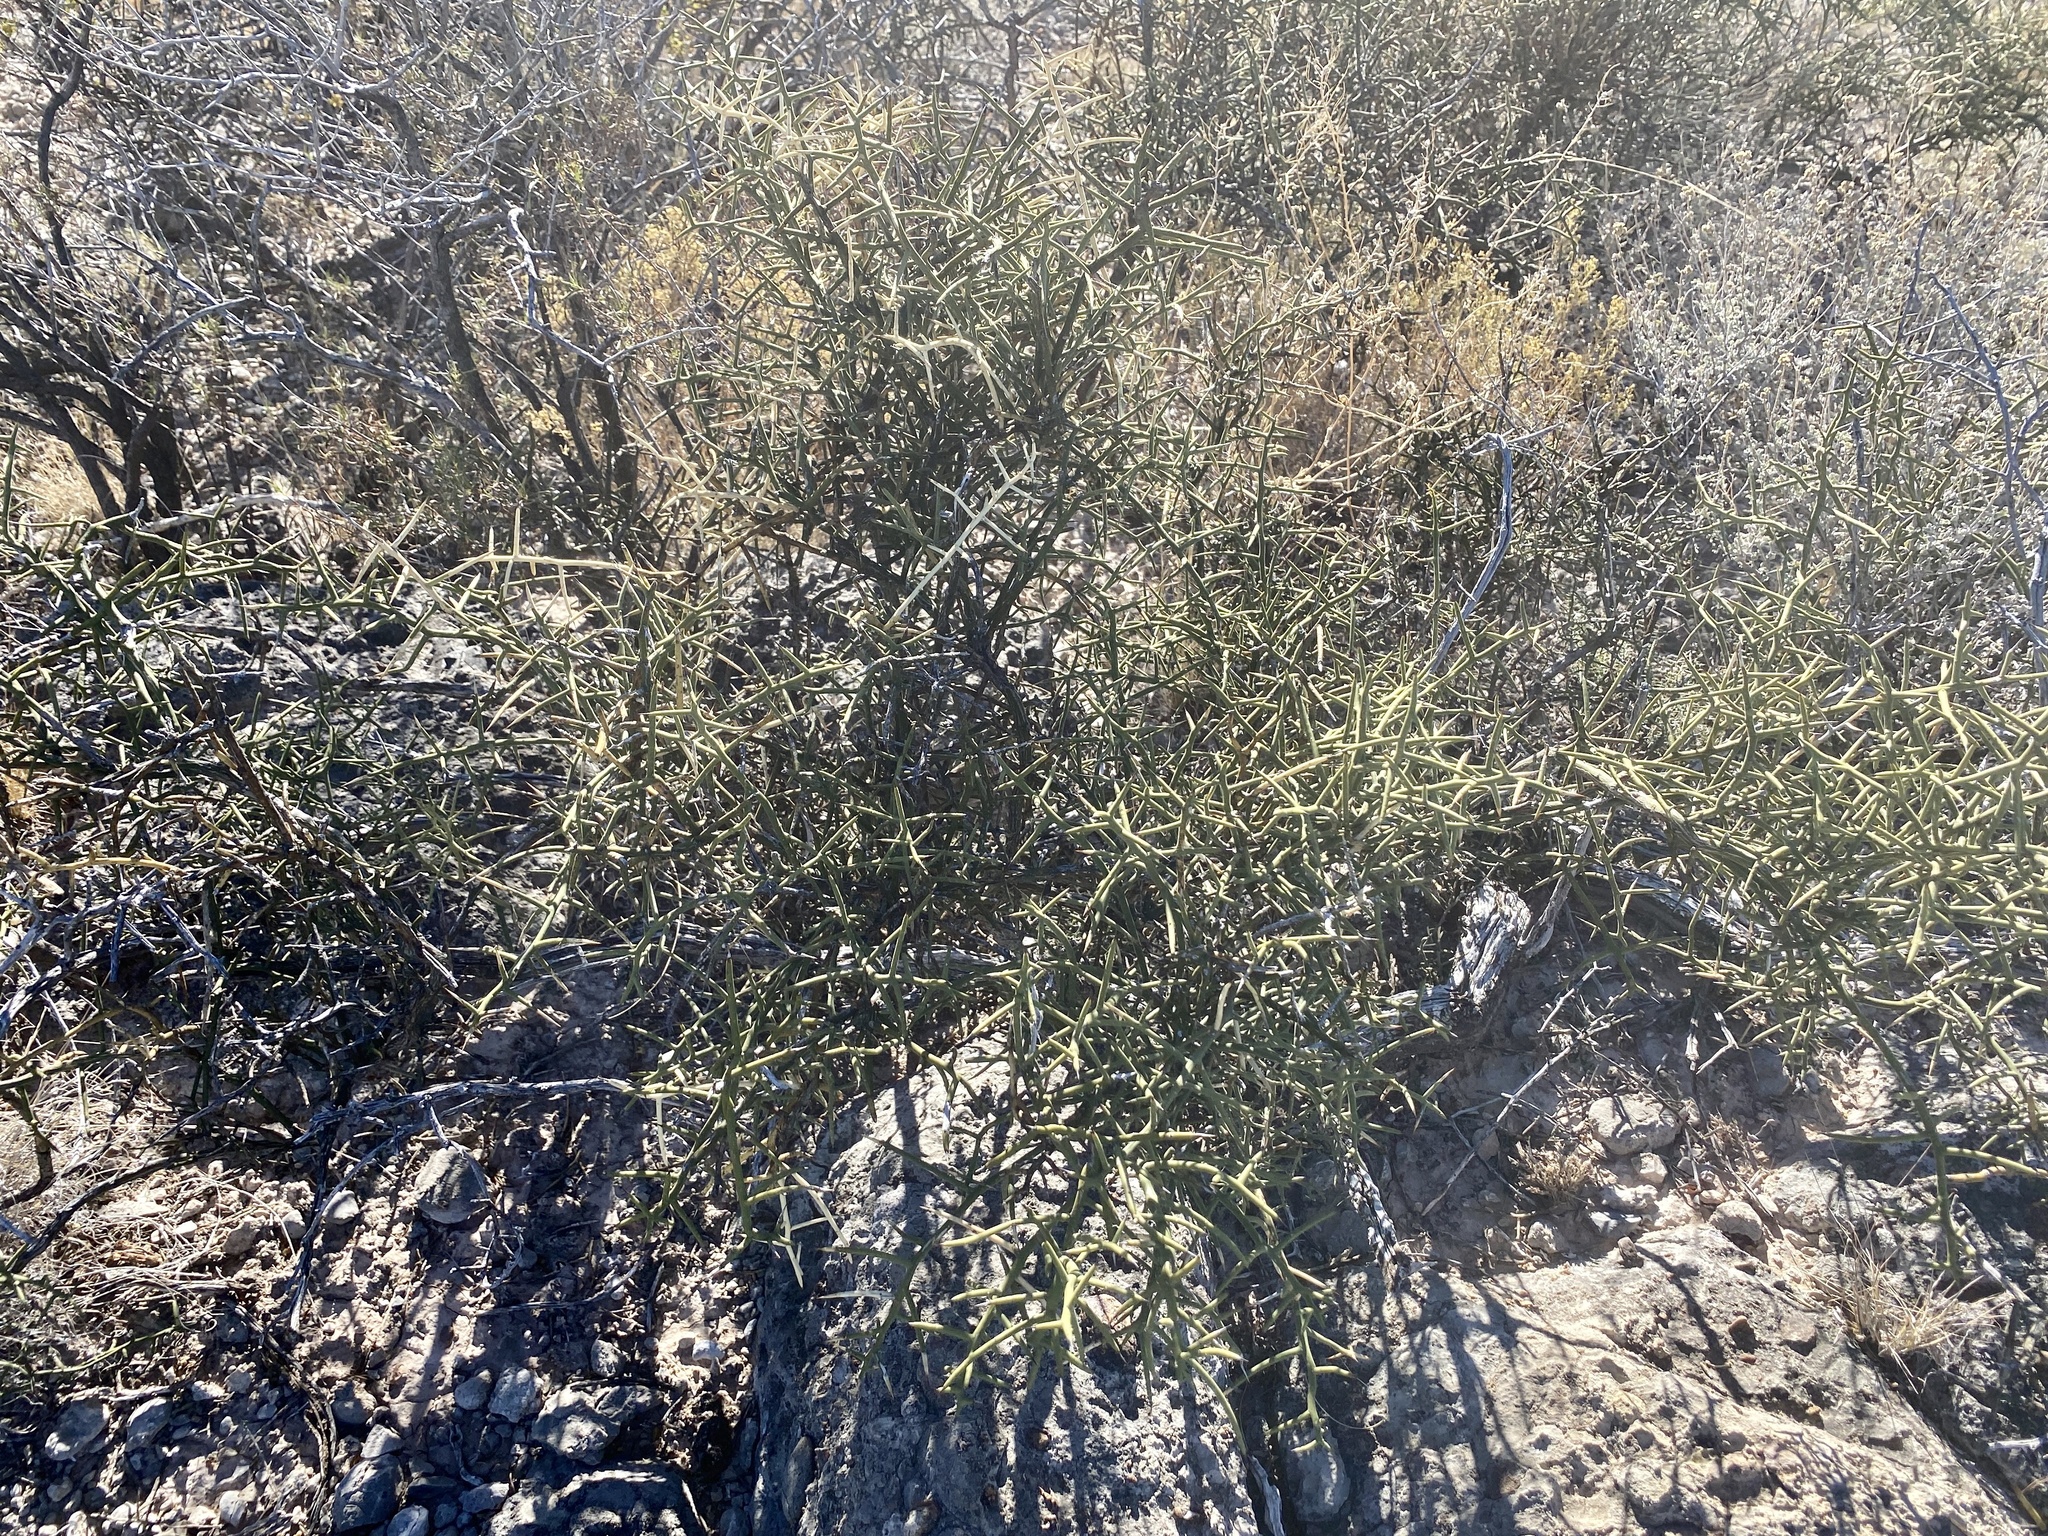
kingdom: Plantae
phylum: Tracheophyta
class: Magnoliopsida
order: Brassicales
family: Koeberliniaceae
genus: Koeberlinia
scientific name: Koeberlinia spinosa
